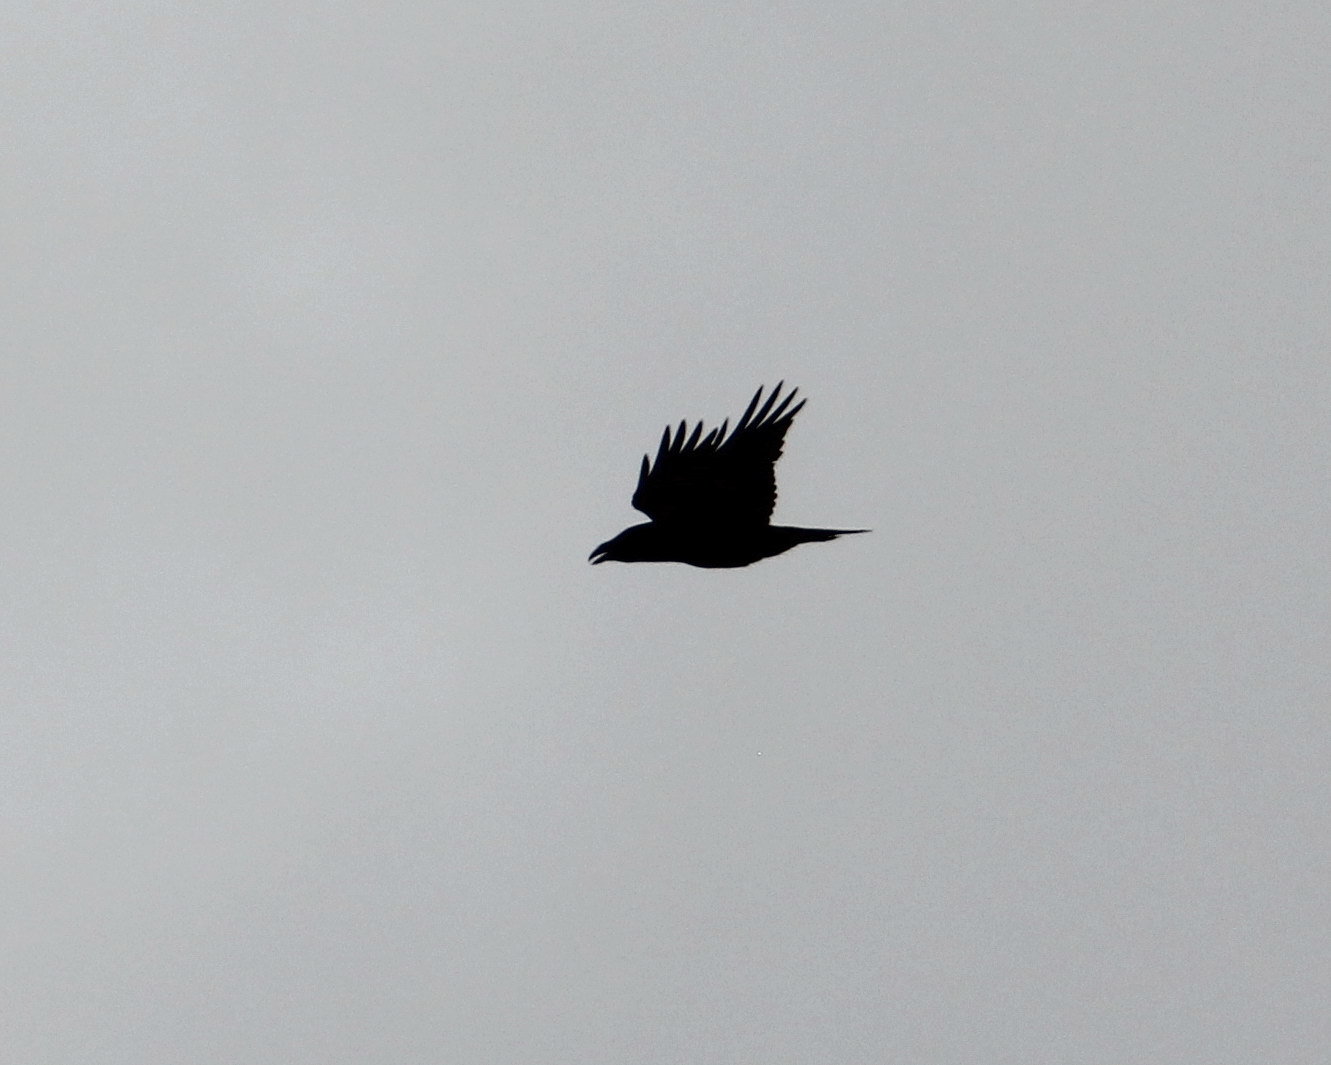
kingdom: Animalia
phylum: Chordata
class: Aves
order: Passeriformes
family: Corvidae
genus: Corvus
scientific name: Corvus corax
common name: Common raven
